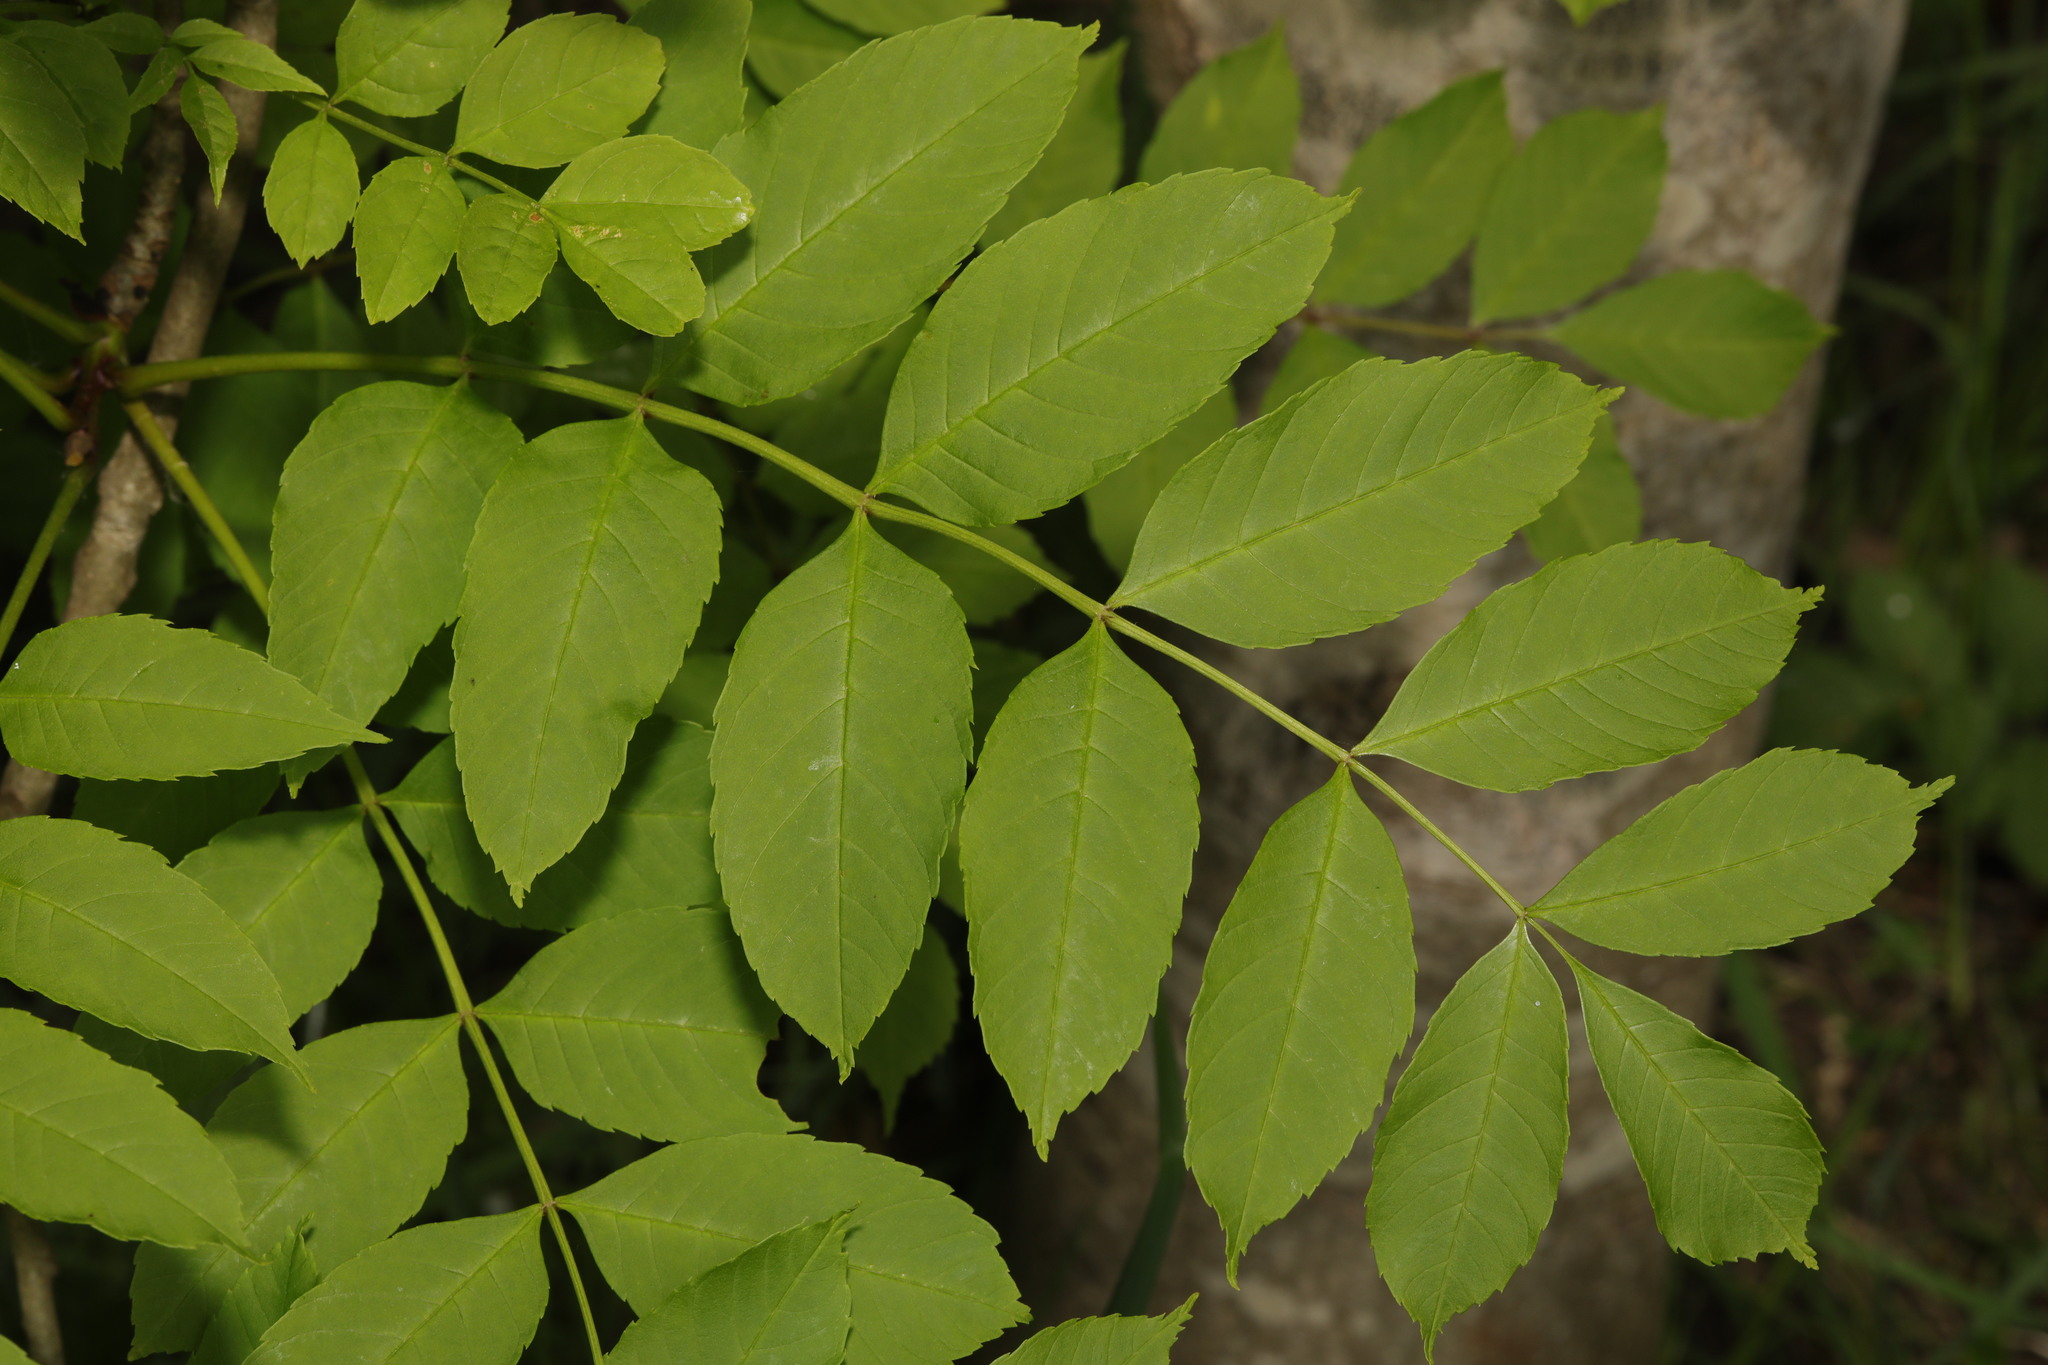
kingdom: Plantae
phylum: Tracheophyta
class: Magnoliopsida
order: Lamiales
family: Oleaceae
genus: Fraxinus
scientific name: Fraxinus excelsior
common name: European ash
